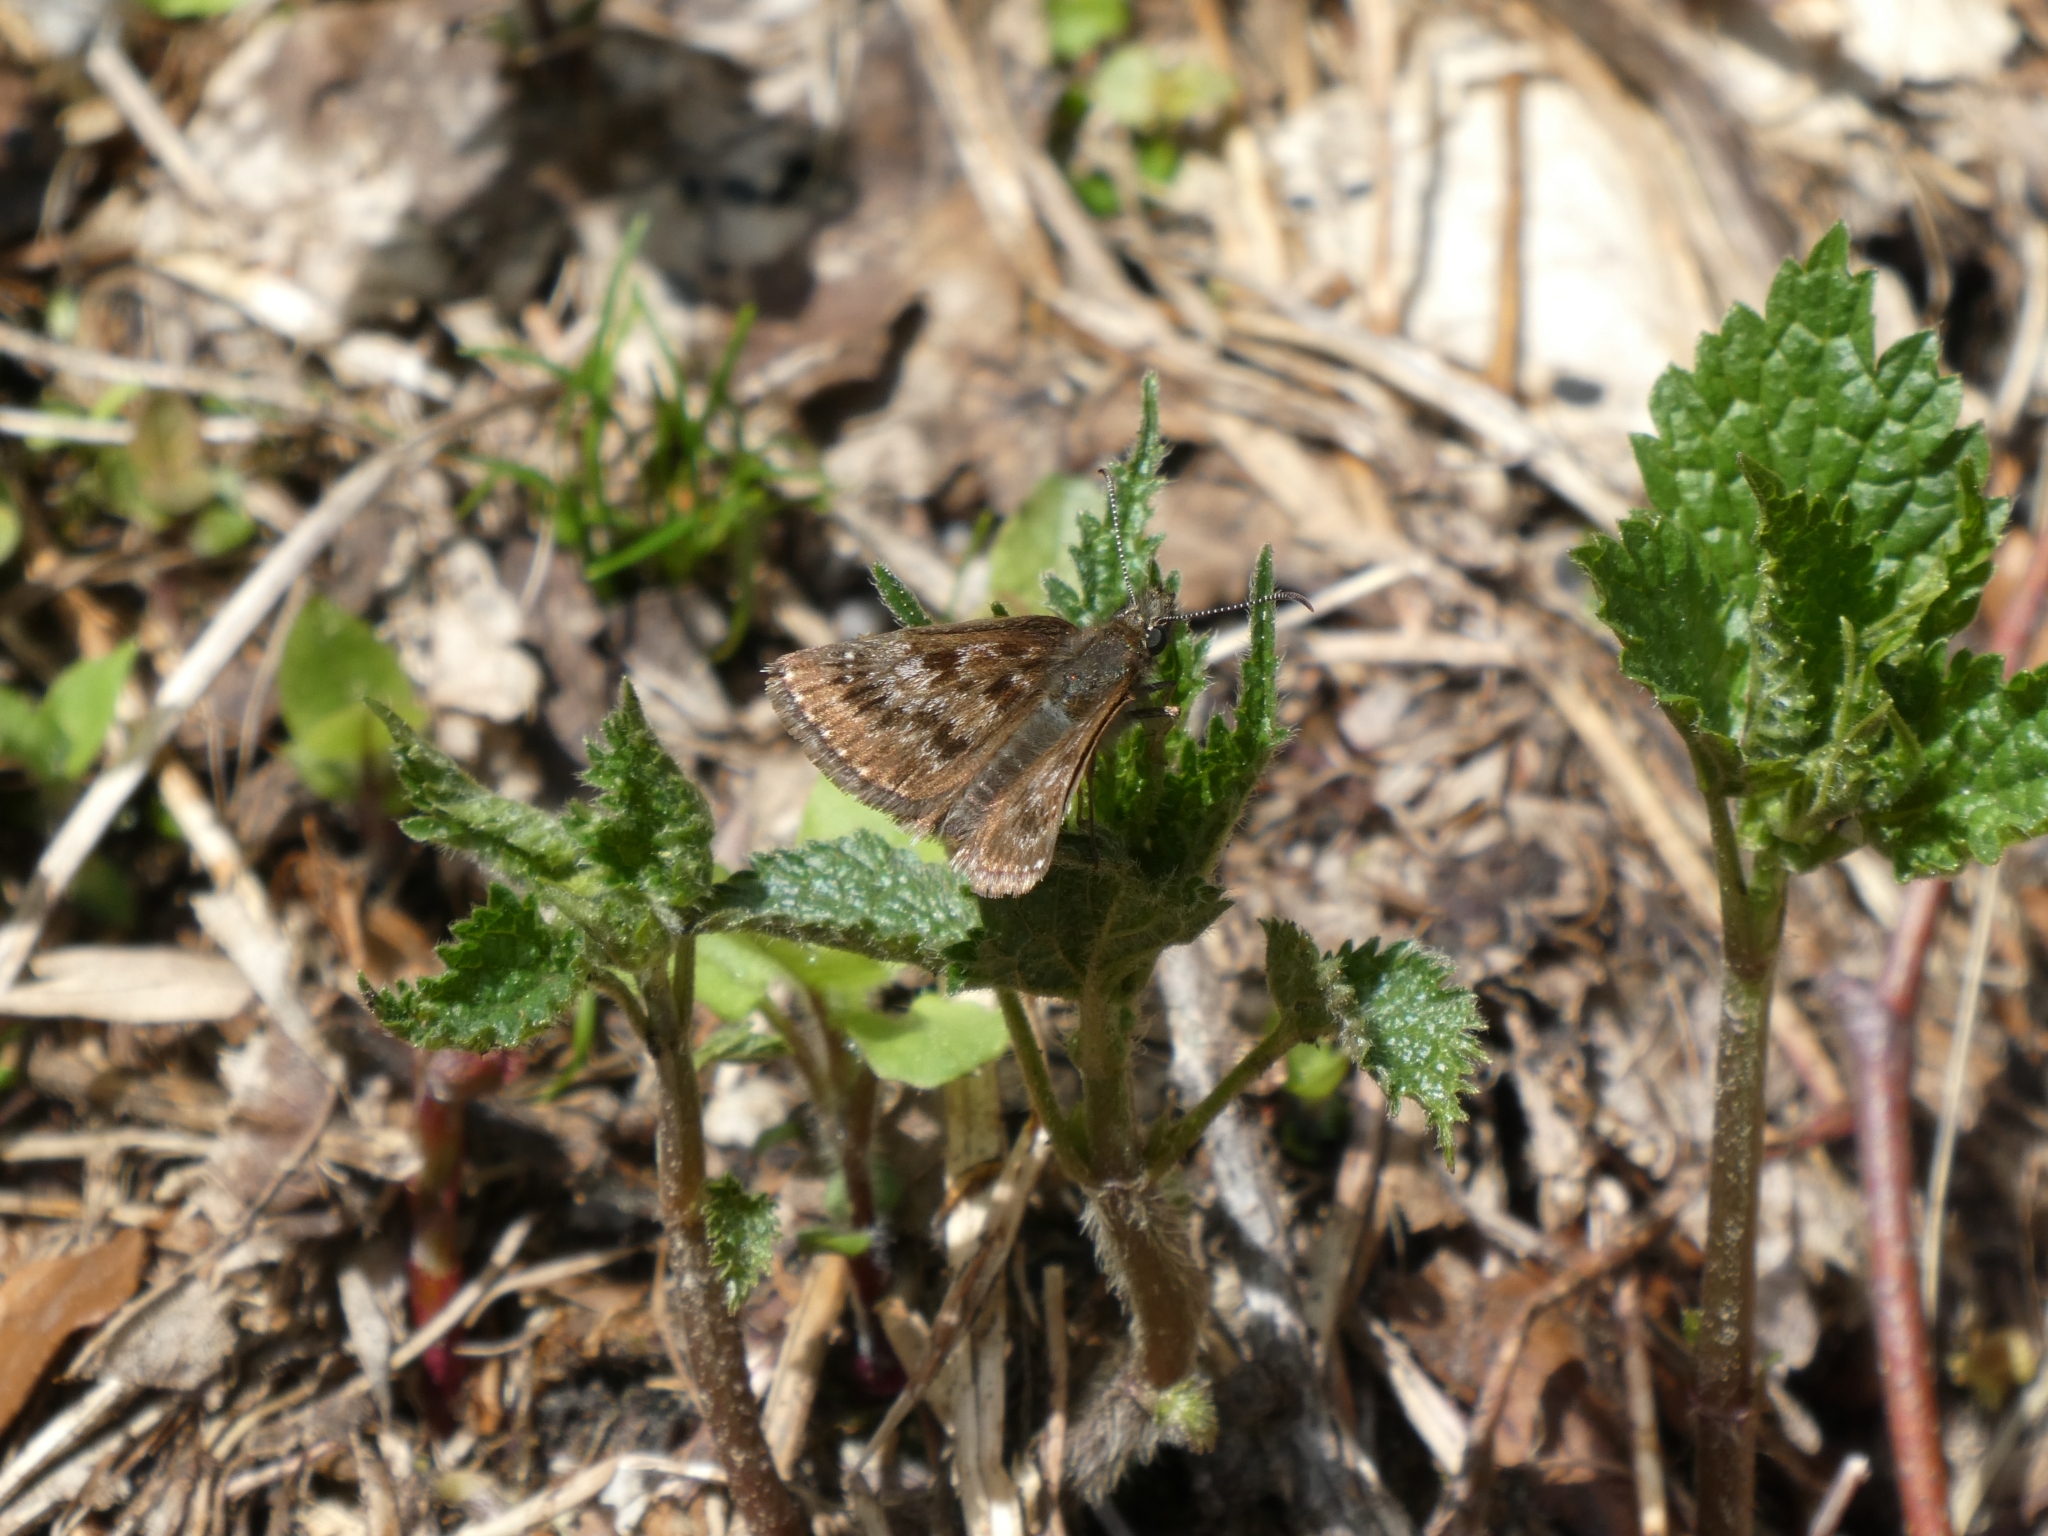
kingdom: Animalia
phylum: Arthropoda
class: Insecta
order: Lepidoptera
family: Hesperiidae
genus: Erynnis
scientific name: Erynnis tages
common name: Dingy skipper
